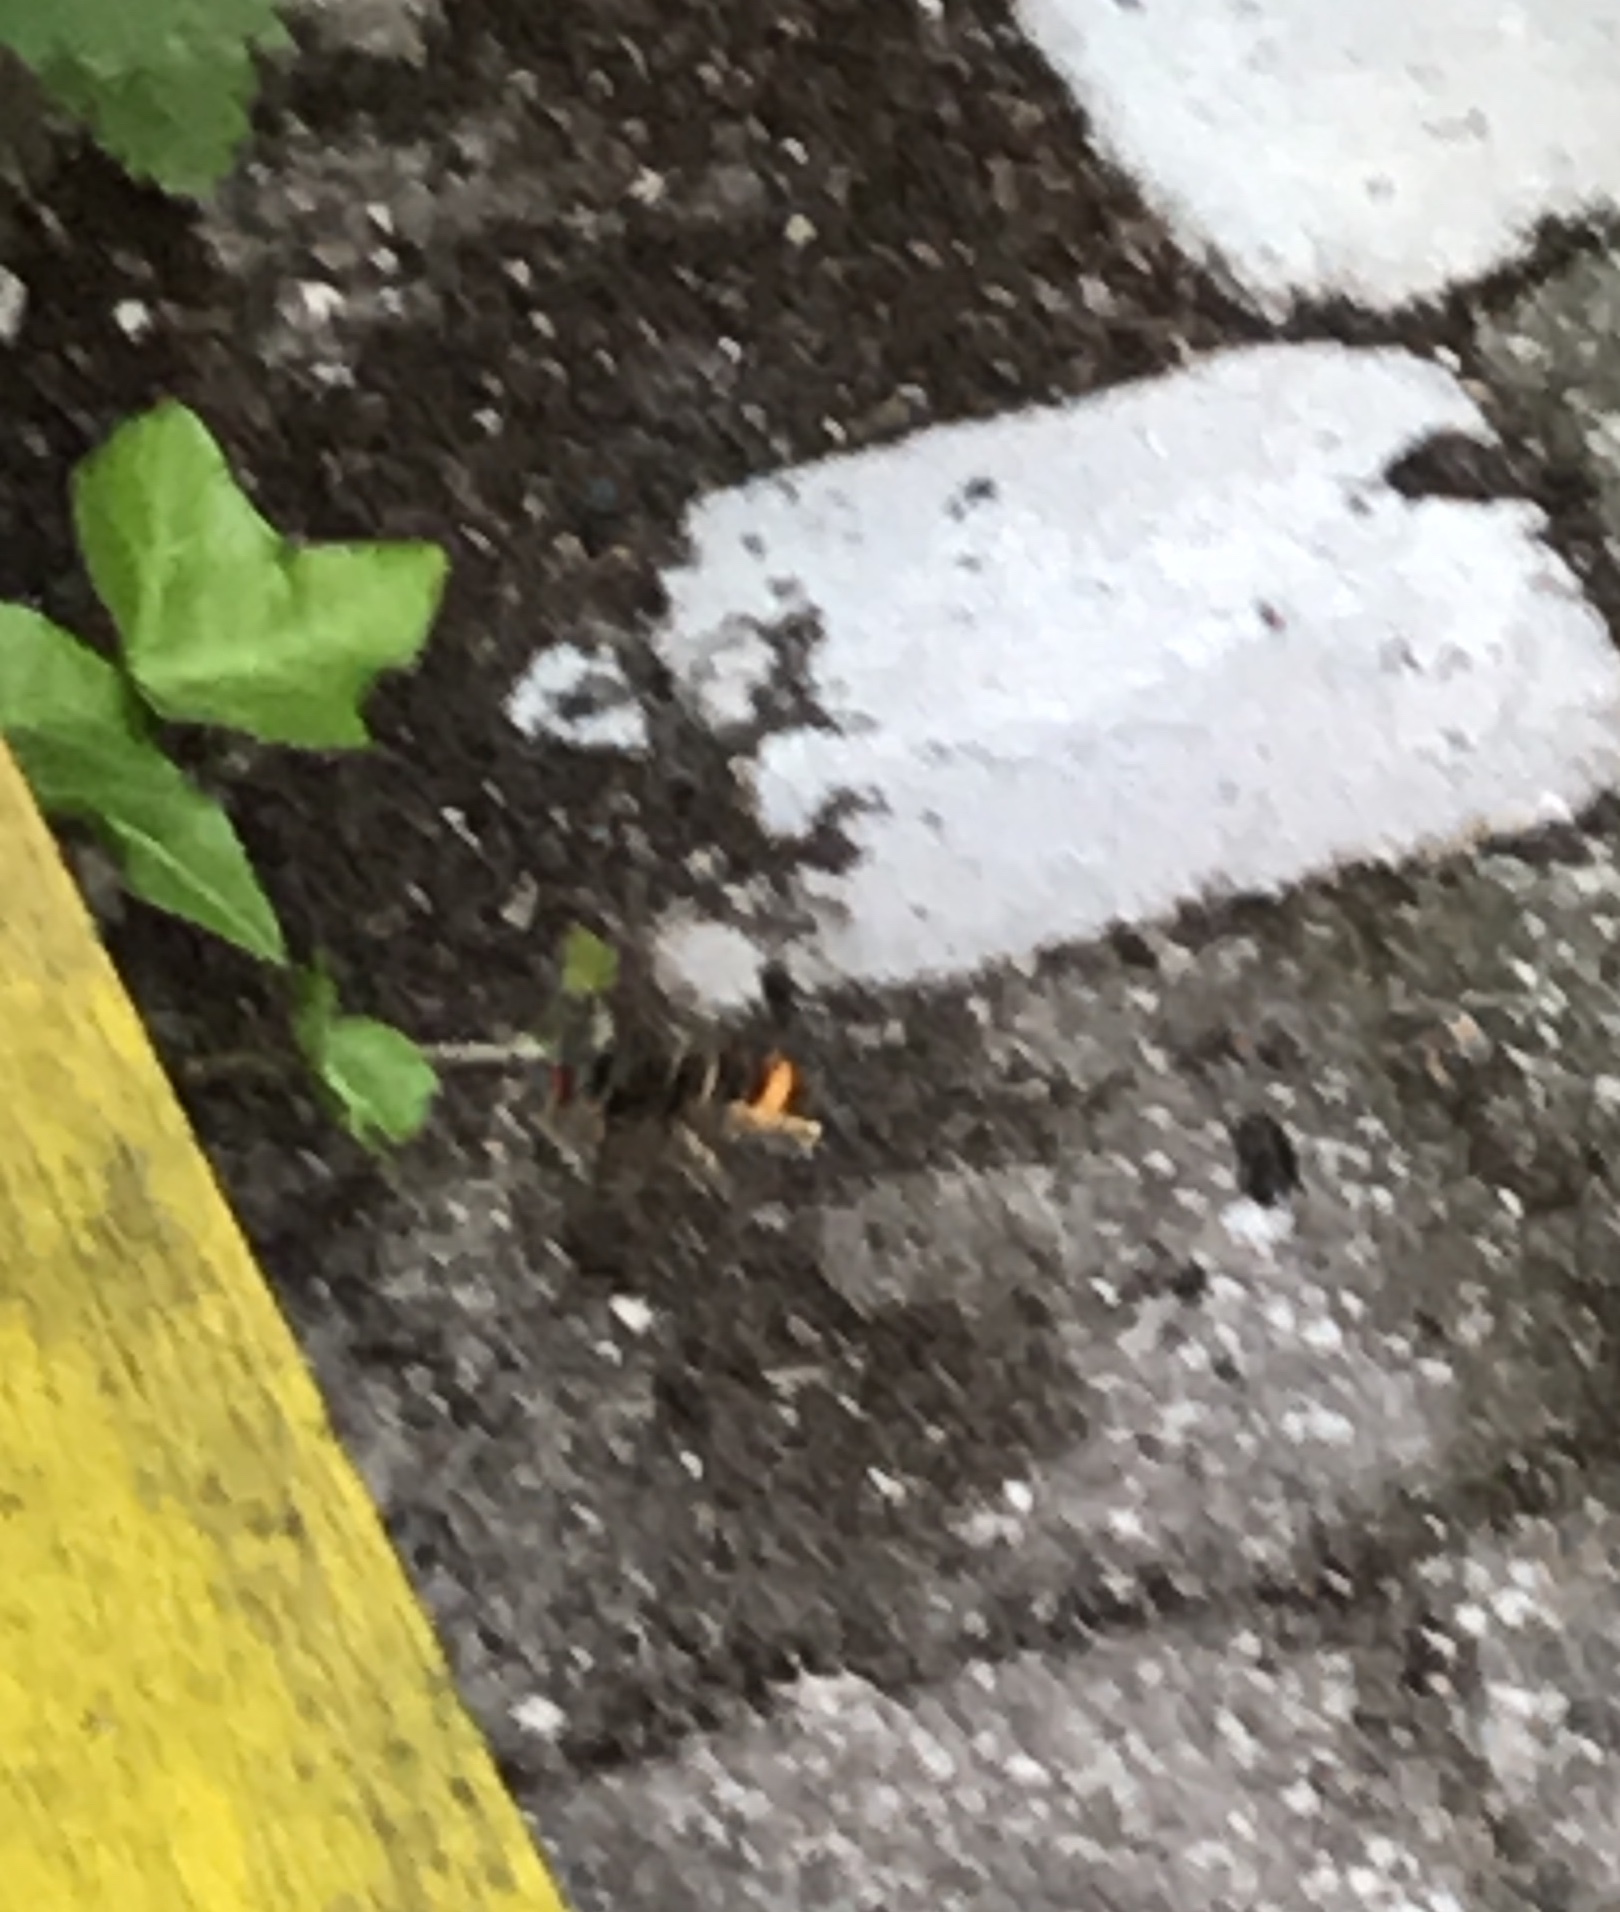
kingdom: Animalia
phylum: Arthropoda
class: Insecta
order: Hymenoptera
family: Vespidae
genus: Vespa
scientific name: Vespa velutina
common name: Asian hornet
